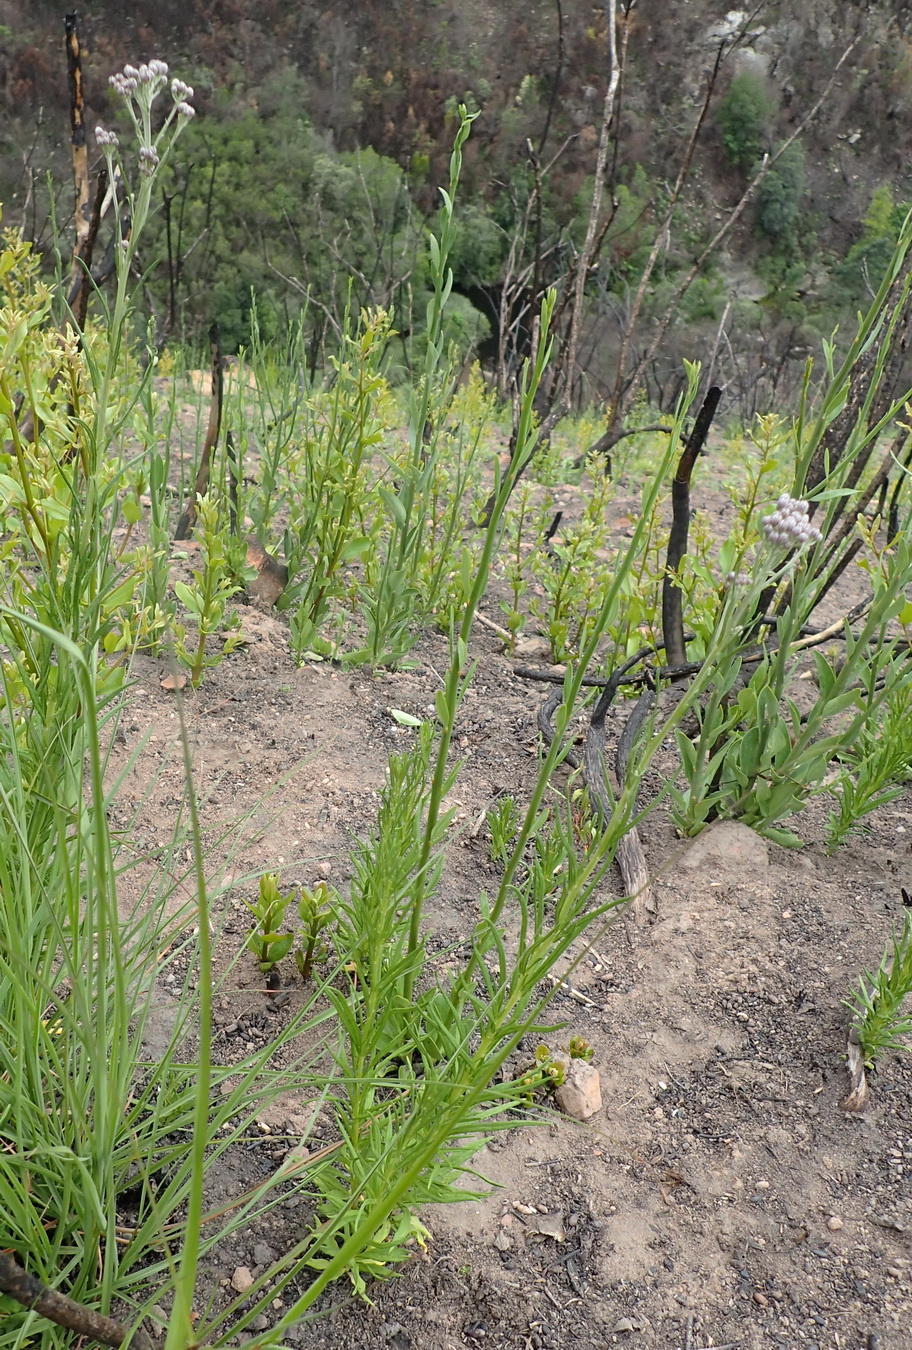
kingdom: Plantae
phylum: Tracheophyta
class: Magnoliopsida
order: Asterales
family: Asteraceae
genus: Hilliardiella
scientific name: Hilliardiella capensis
